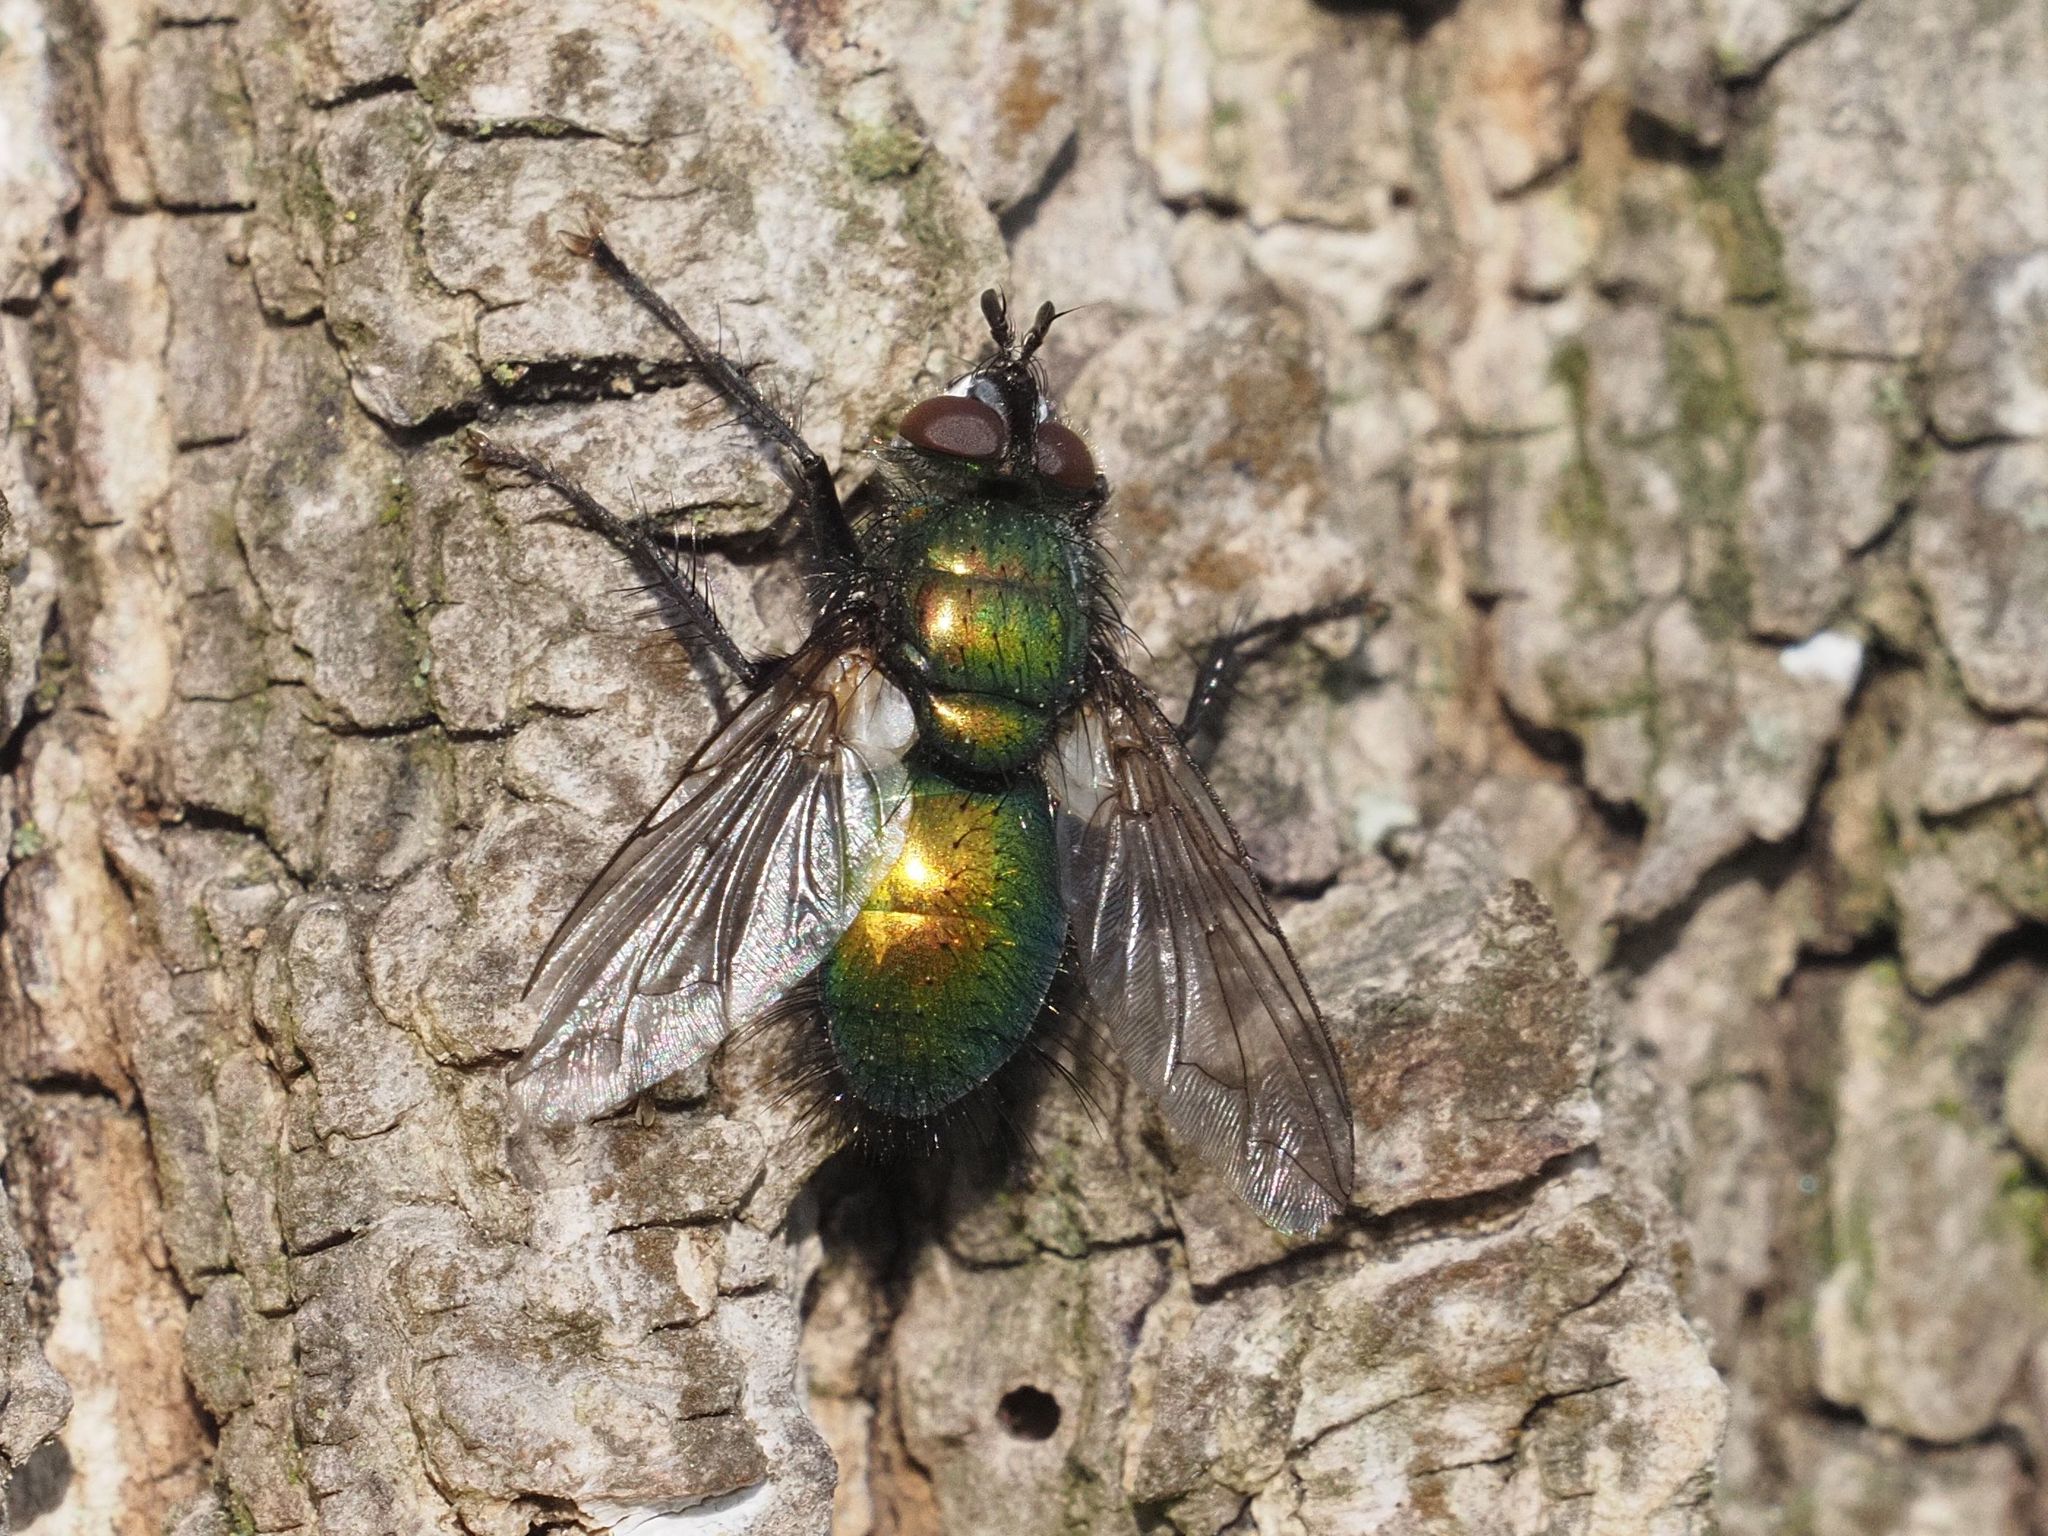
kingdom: Animalia
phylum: Arthropoda
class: Insecta
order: Diptera
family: Tachinidae
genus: Gymnocheta
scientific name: Gymnocheta viridis
